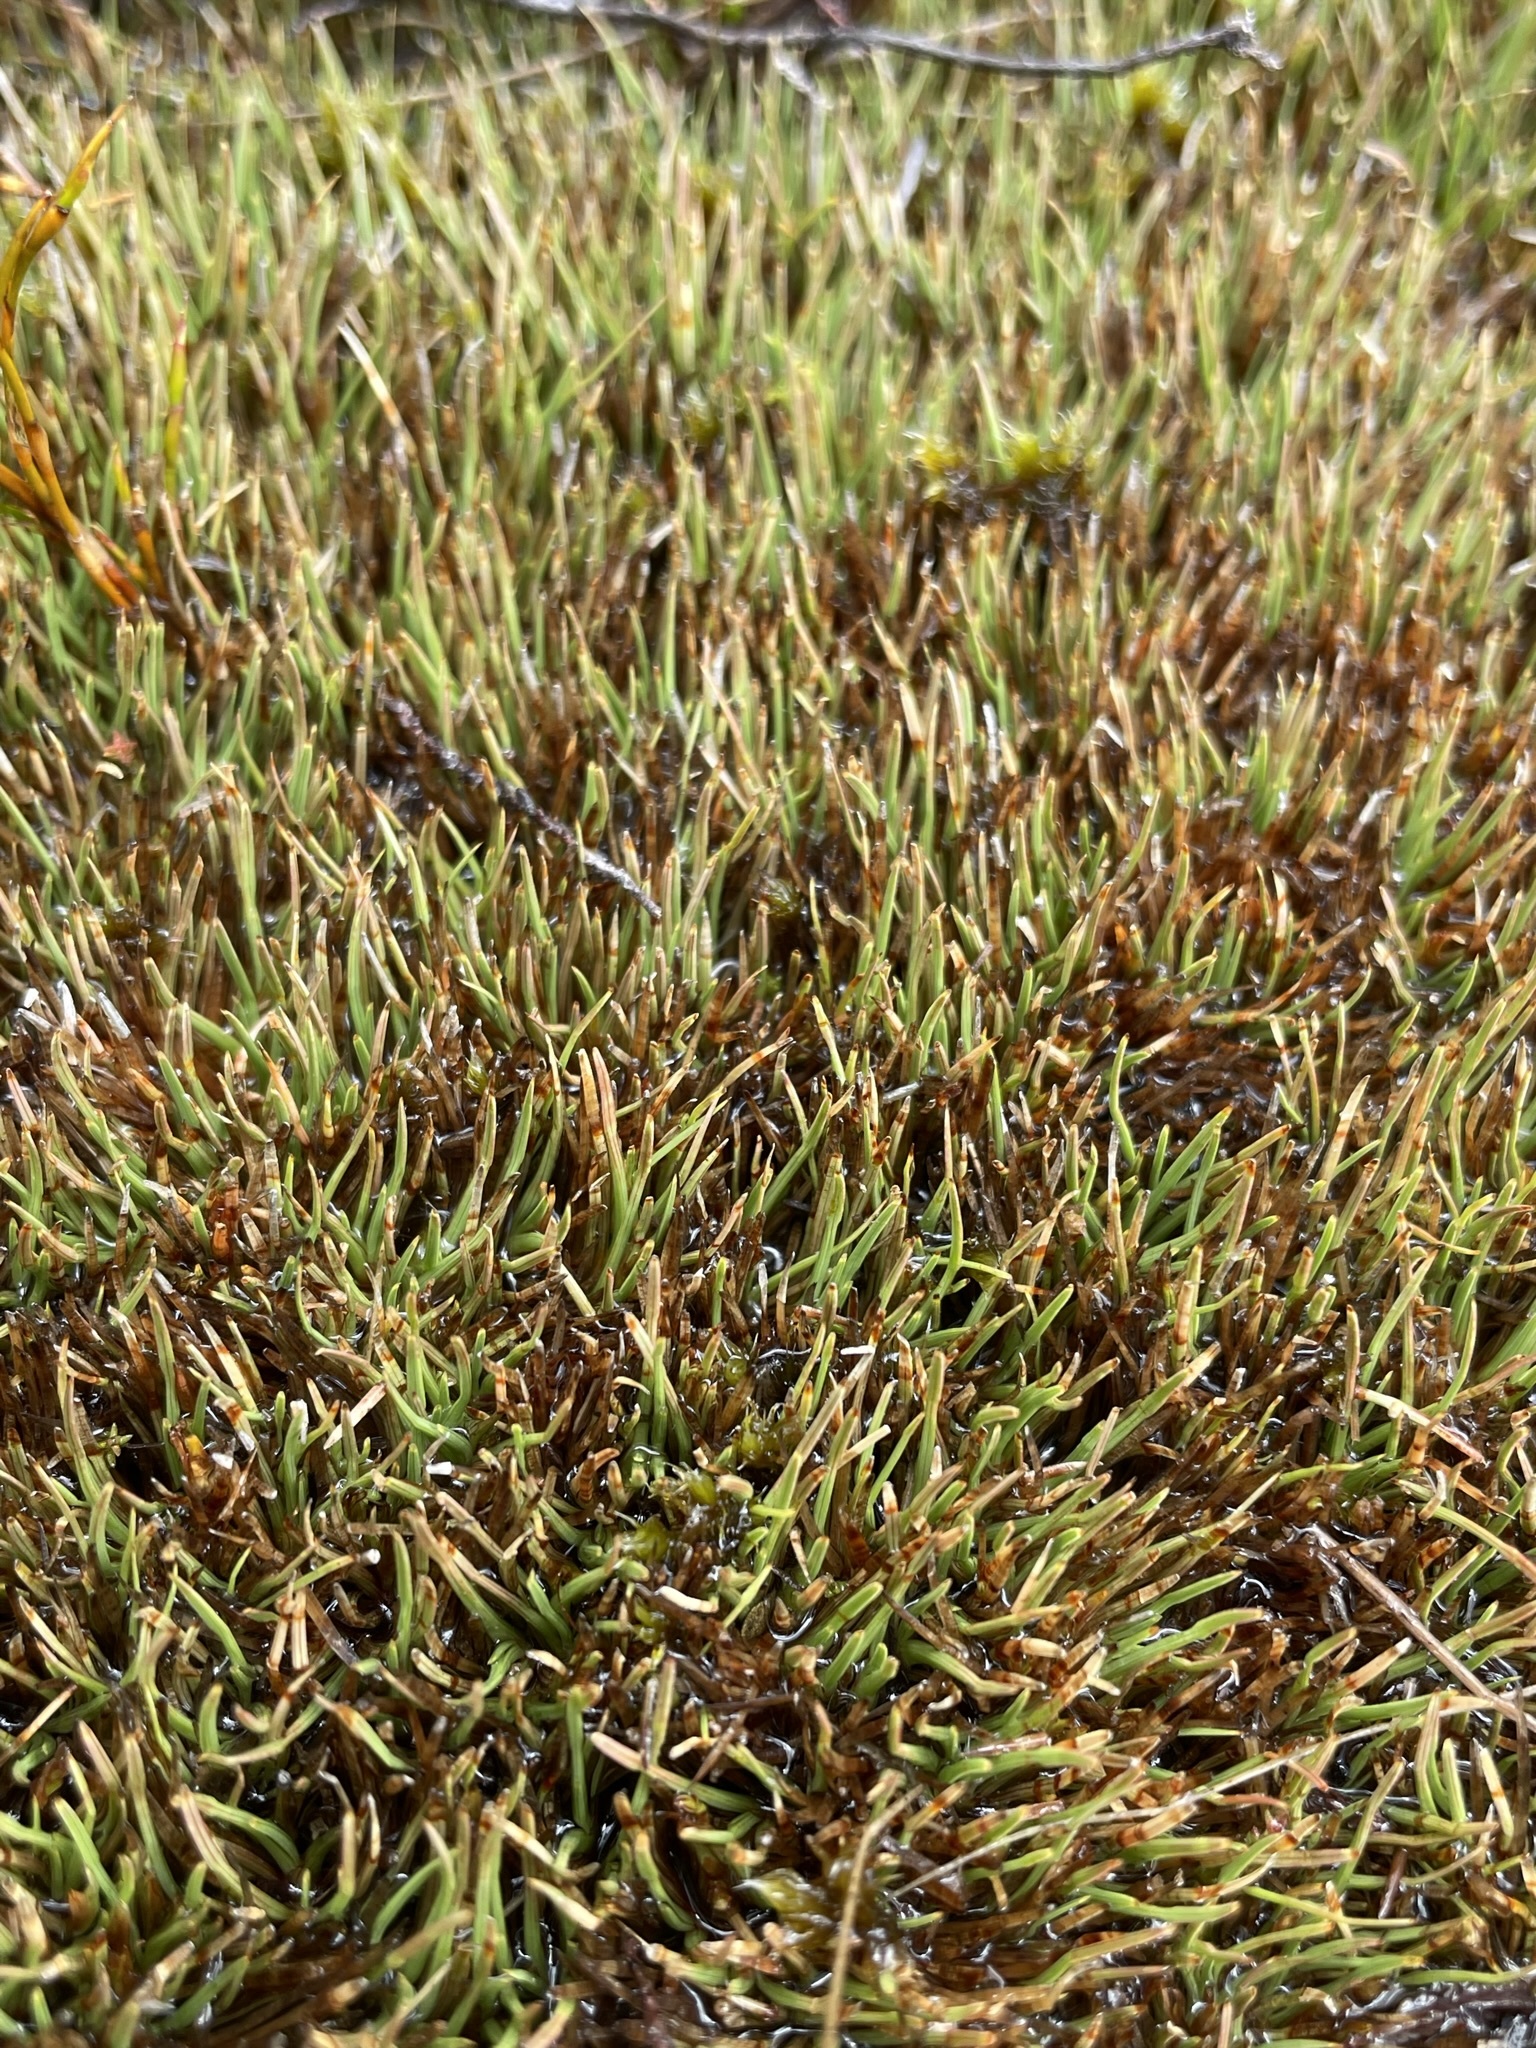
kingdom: Plantae
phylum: Tracheophyta
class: Liliopsida
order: Poales
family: Cyperaceae
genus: Oreobolus
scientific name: Oreobolus pectinatus
